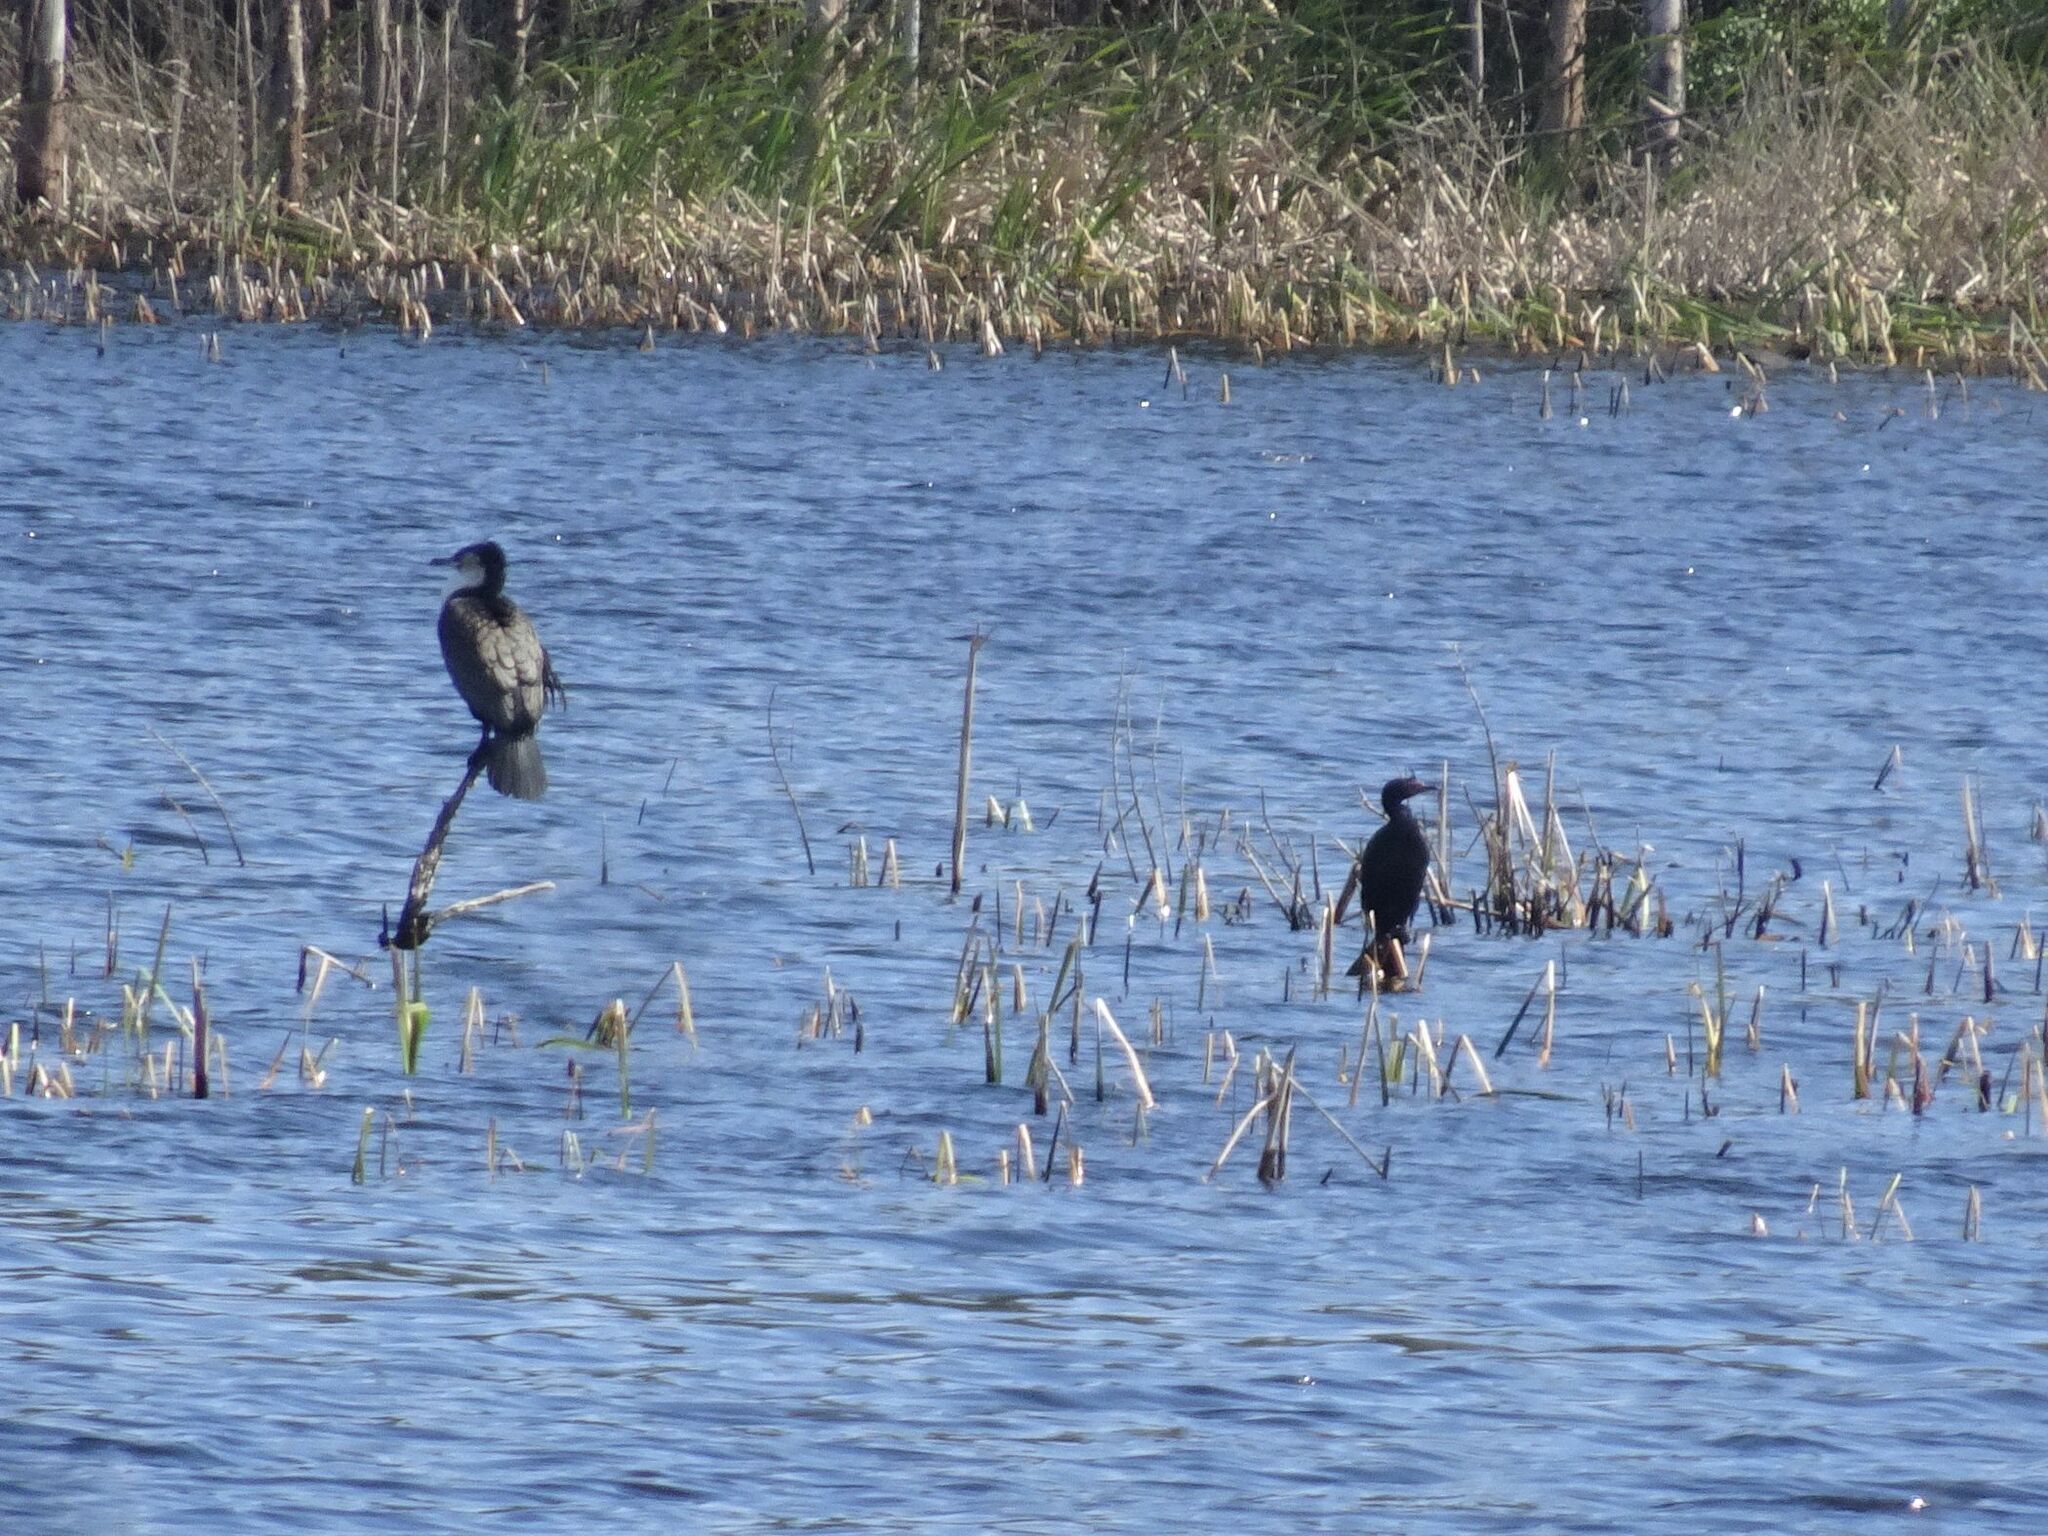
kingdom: Animalia
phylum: Chordata
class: Aves
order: Suliformes
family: Phalacrocoracidae
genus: Phalacrocorax
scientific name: Phalacrocorax carbo
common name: Great cormorant
